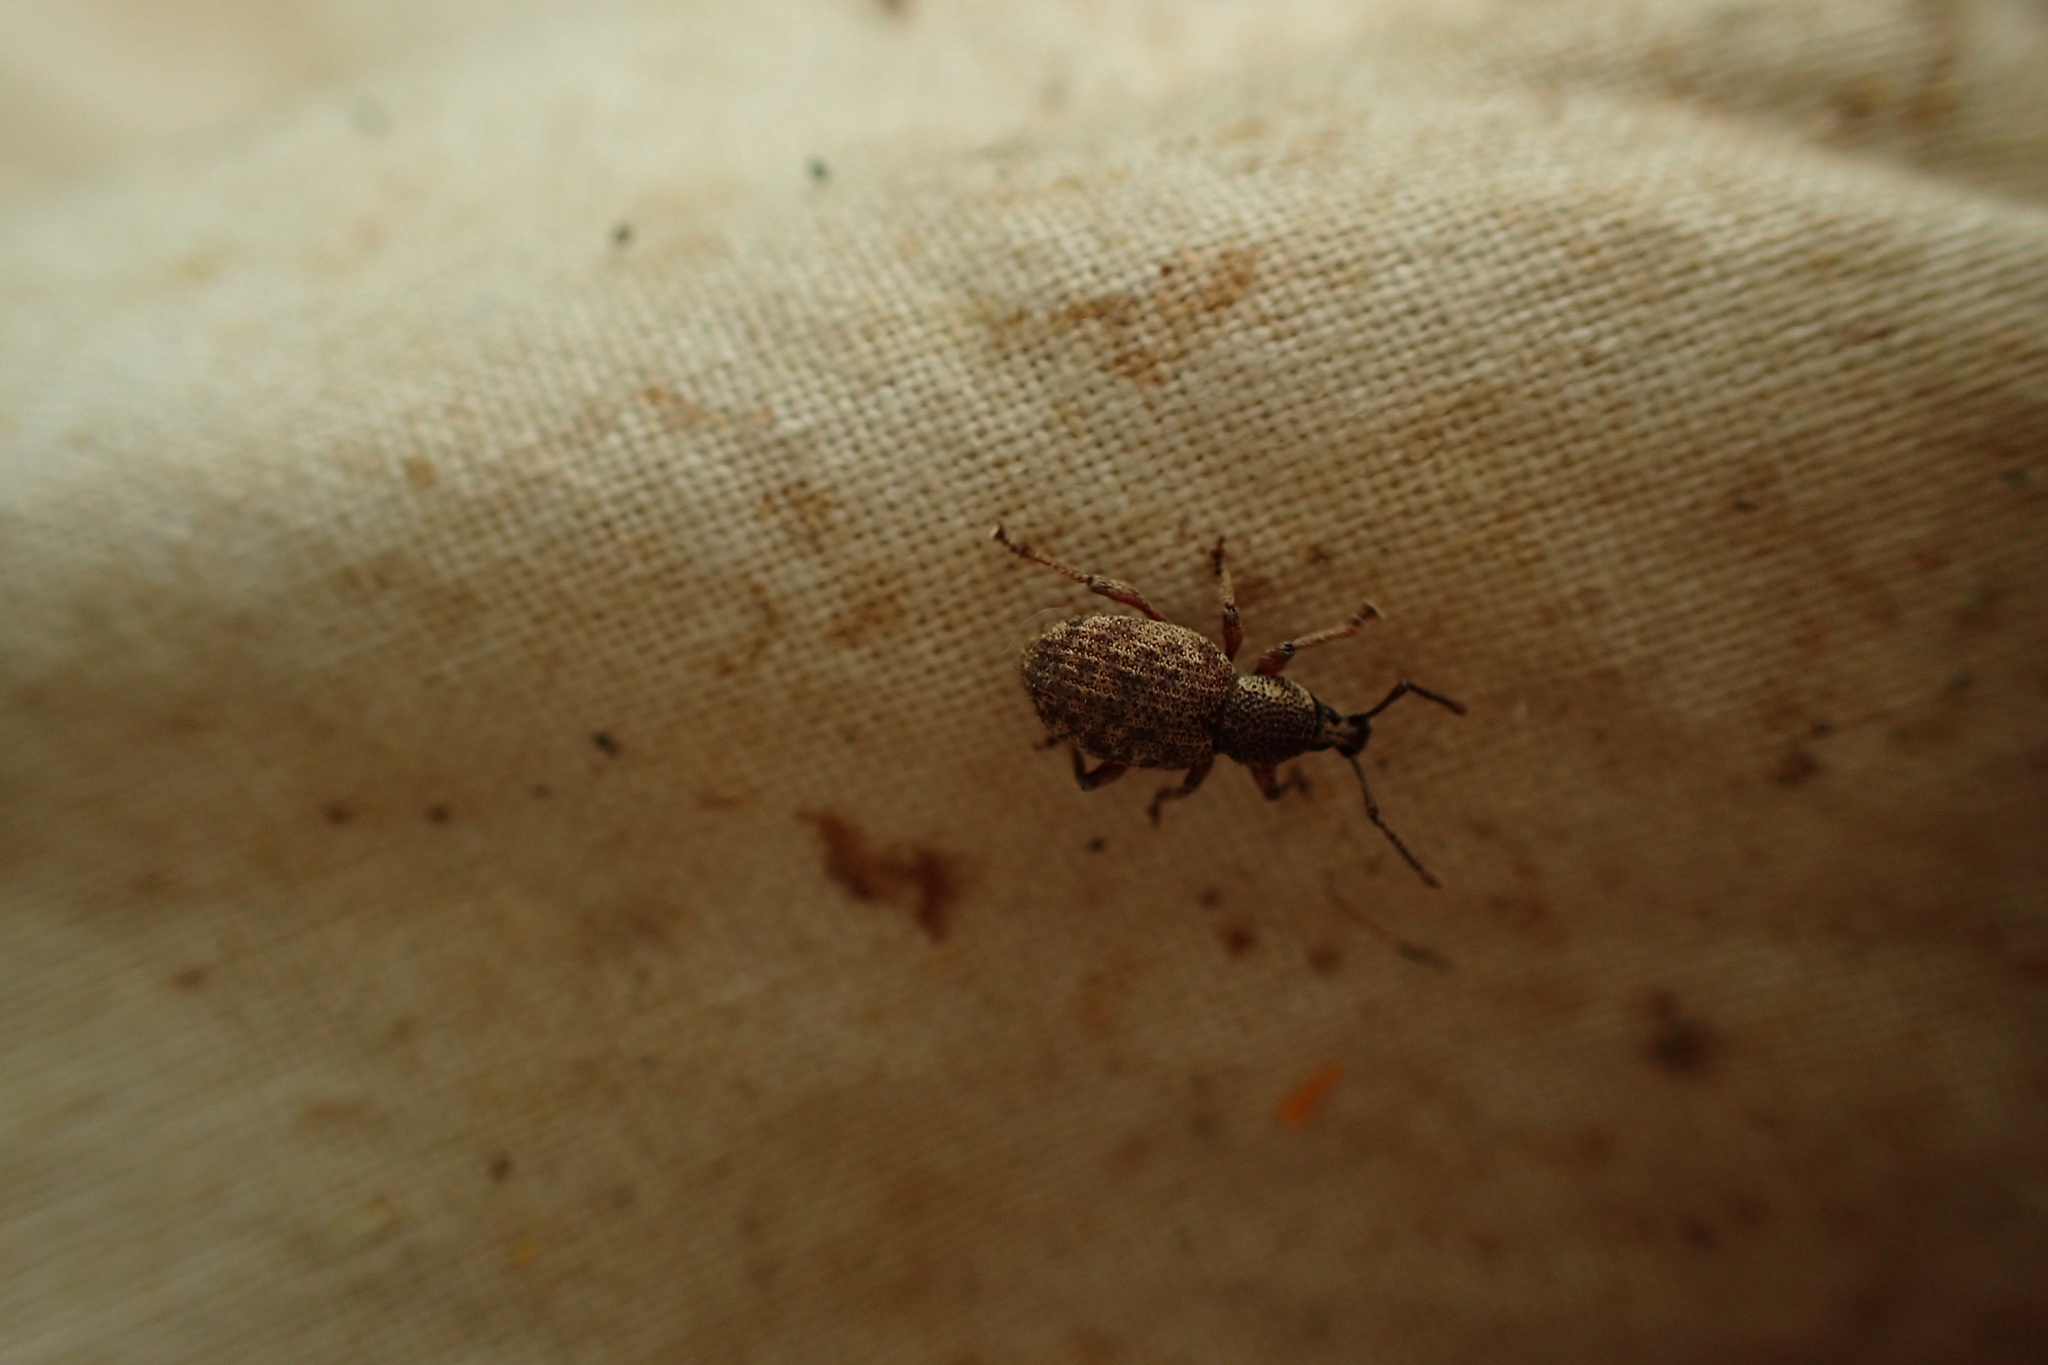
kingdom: Animalia
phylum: Arthropoda
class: Insecta
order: Coleoptera
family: Curculionidae
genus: Otiorhynchus
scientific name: Otiorhynchus singularis
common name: Clay-coloured weevil
